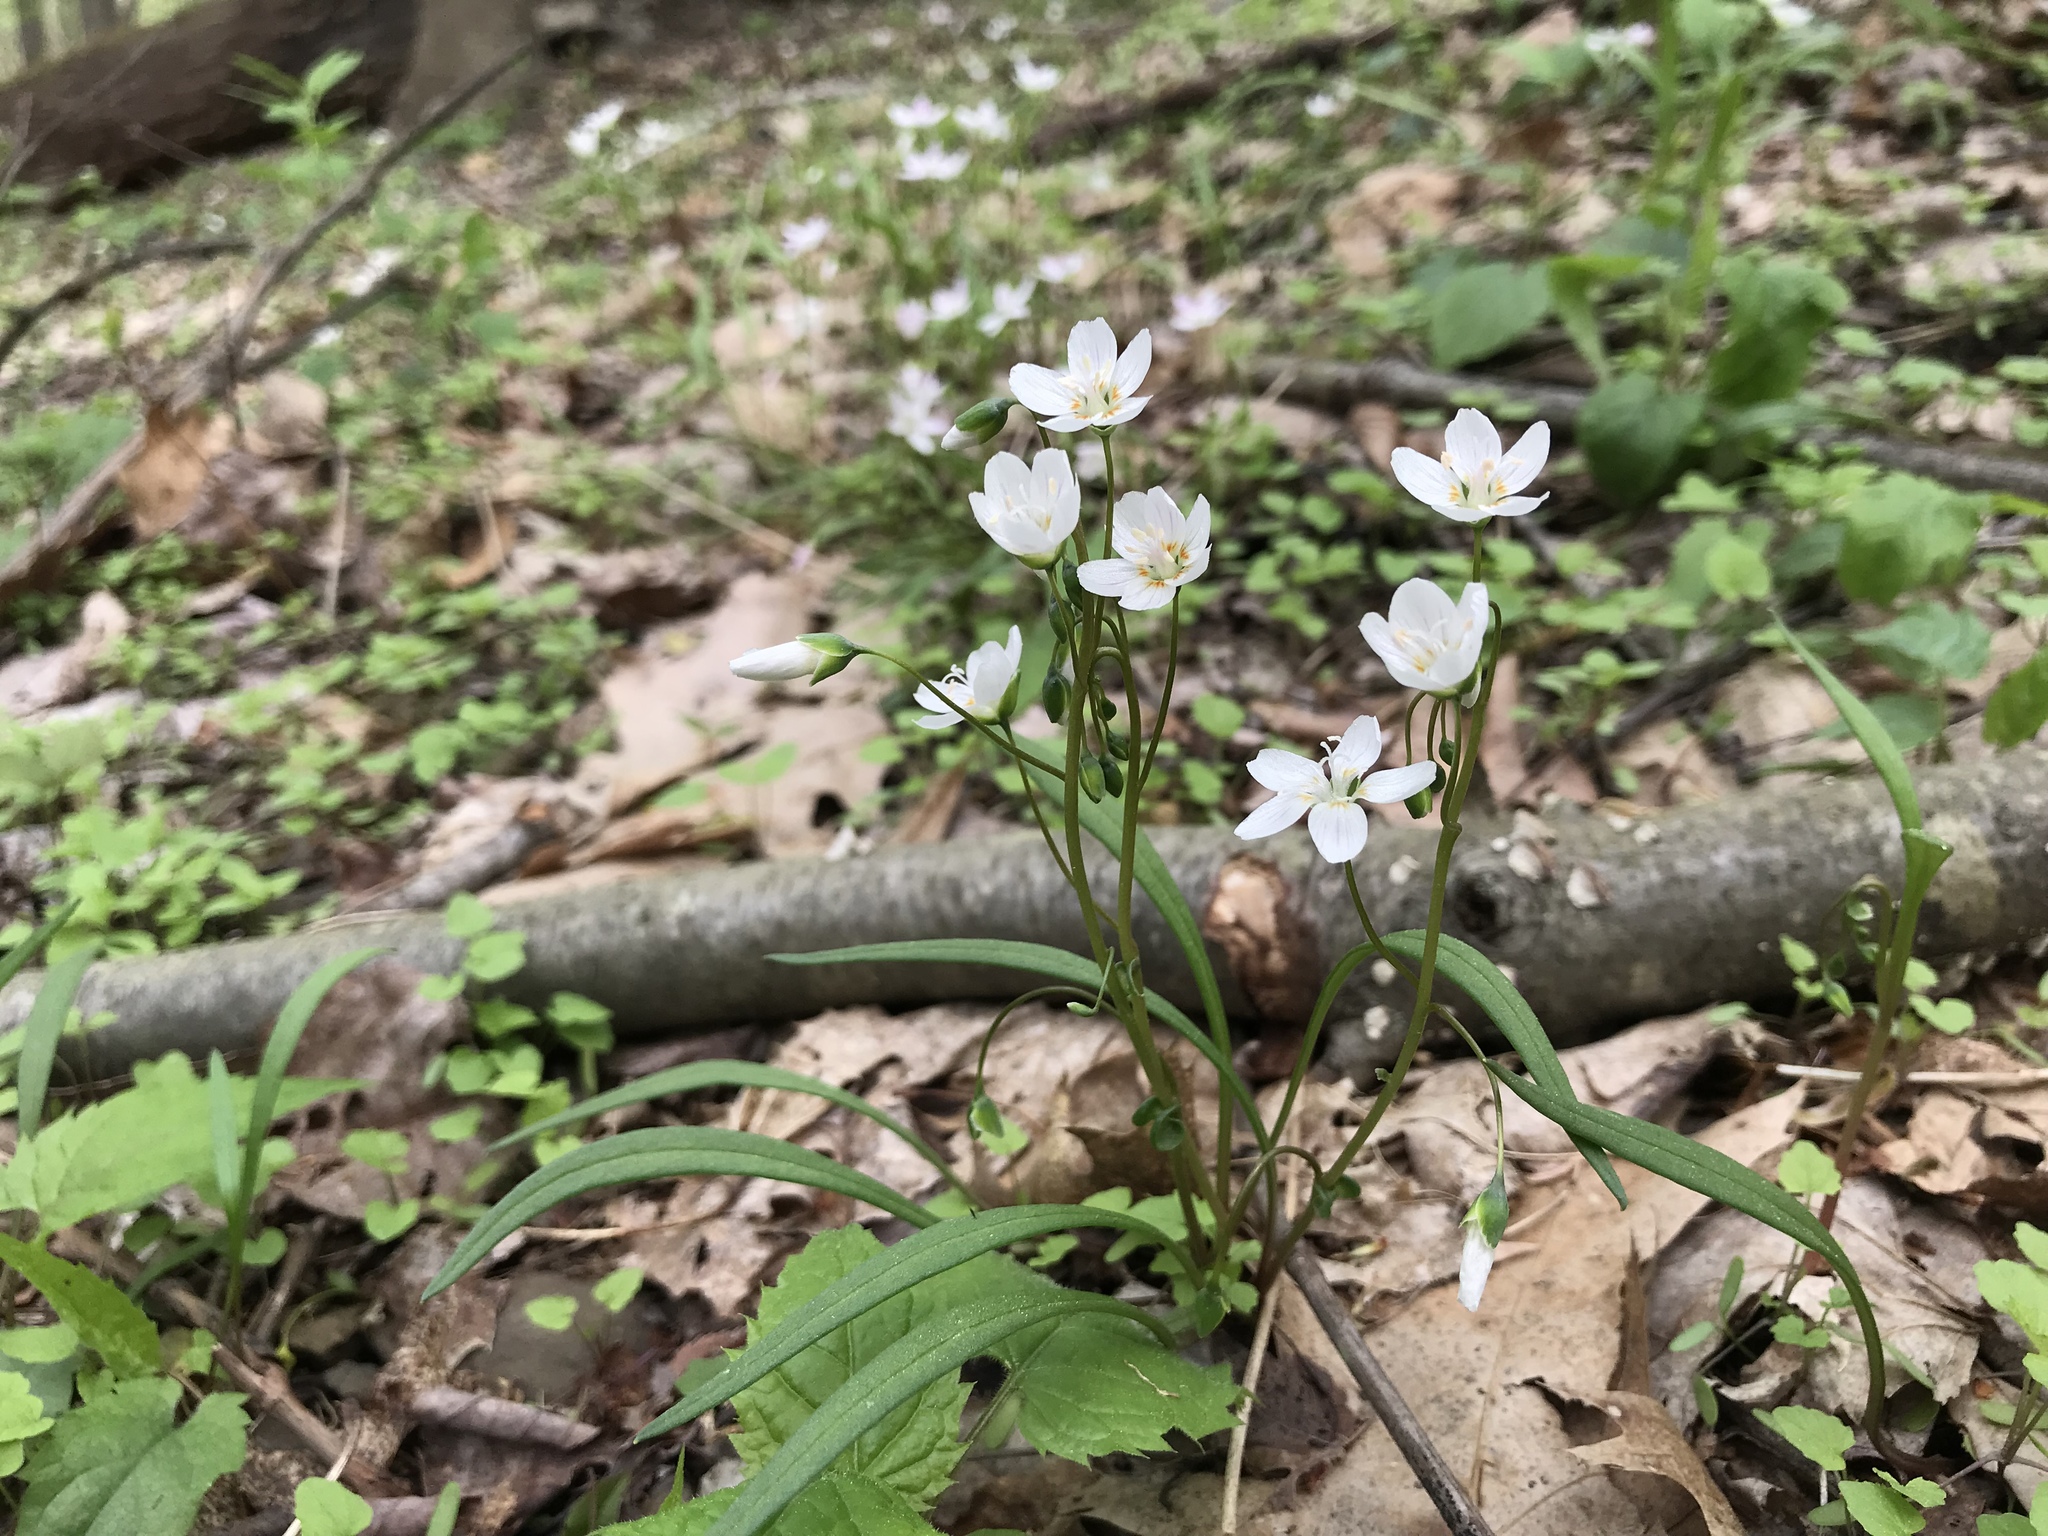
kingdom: Plantae
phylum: Tracheophyta
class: Magnoliopsida
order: Caryophyllales
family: Montiaceae
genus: Claytonia
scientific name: Claytonia virginica
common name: Virginia springbeauty
